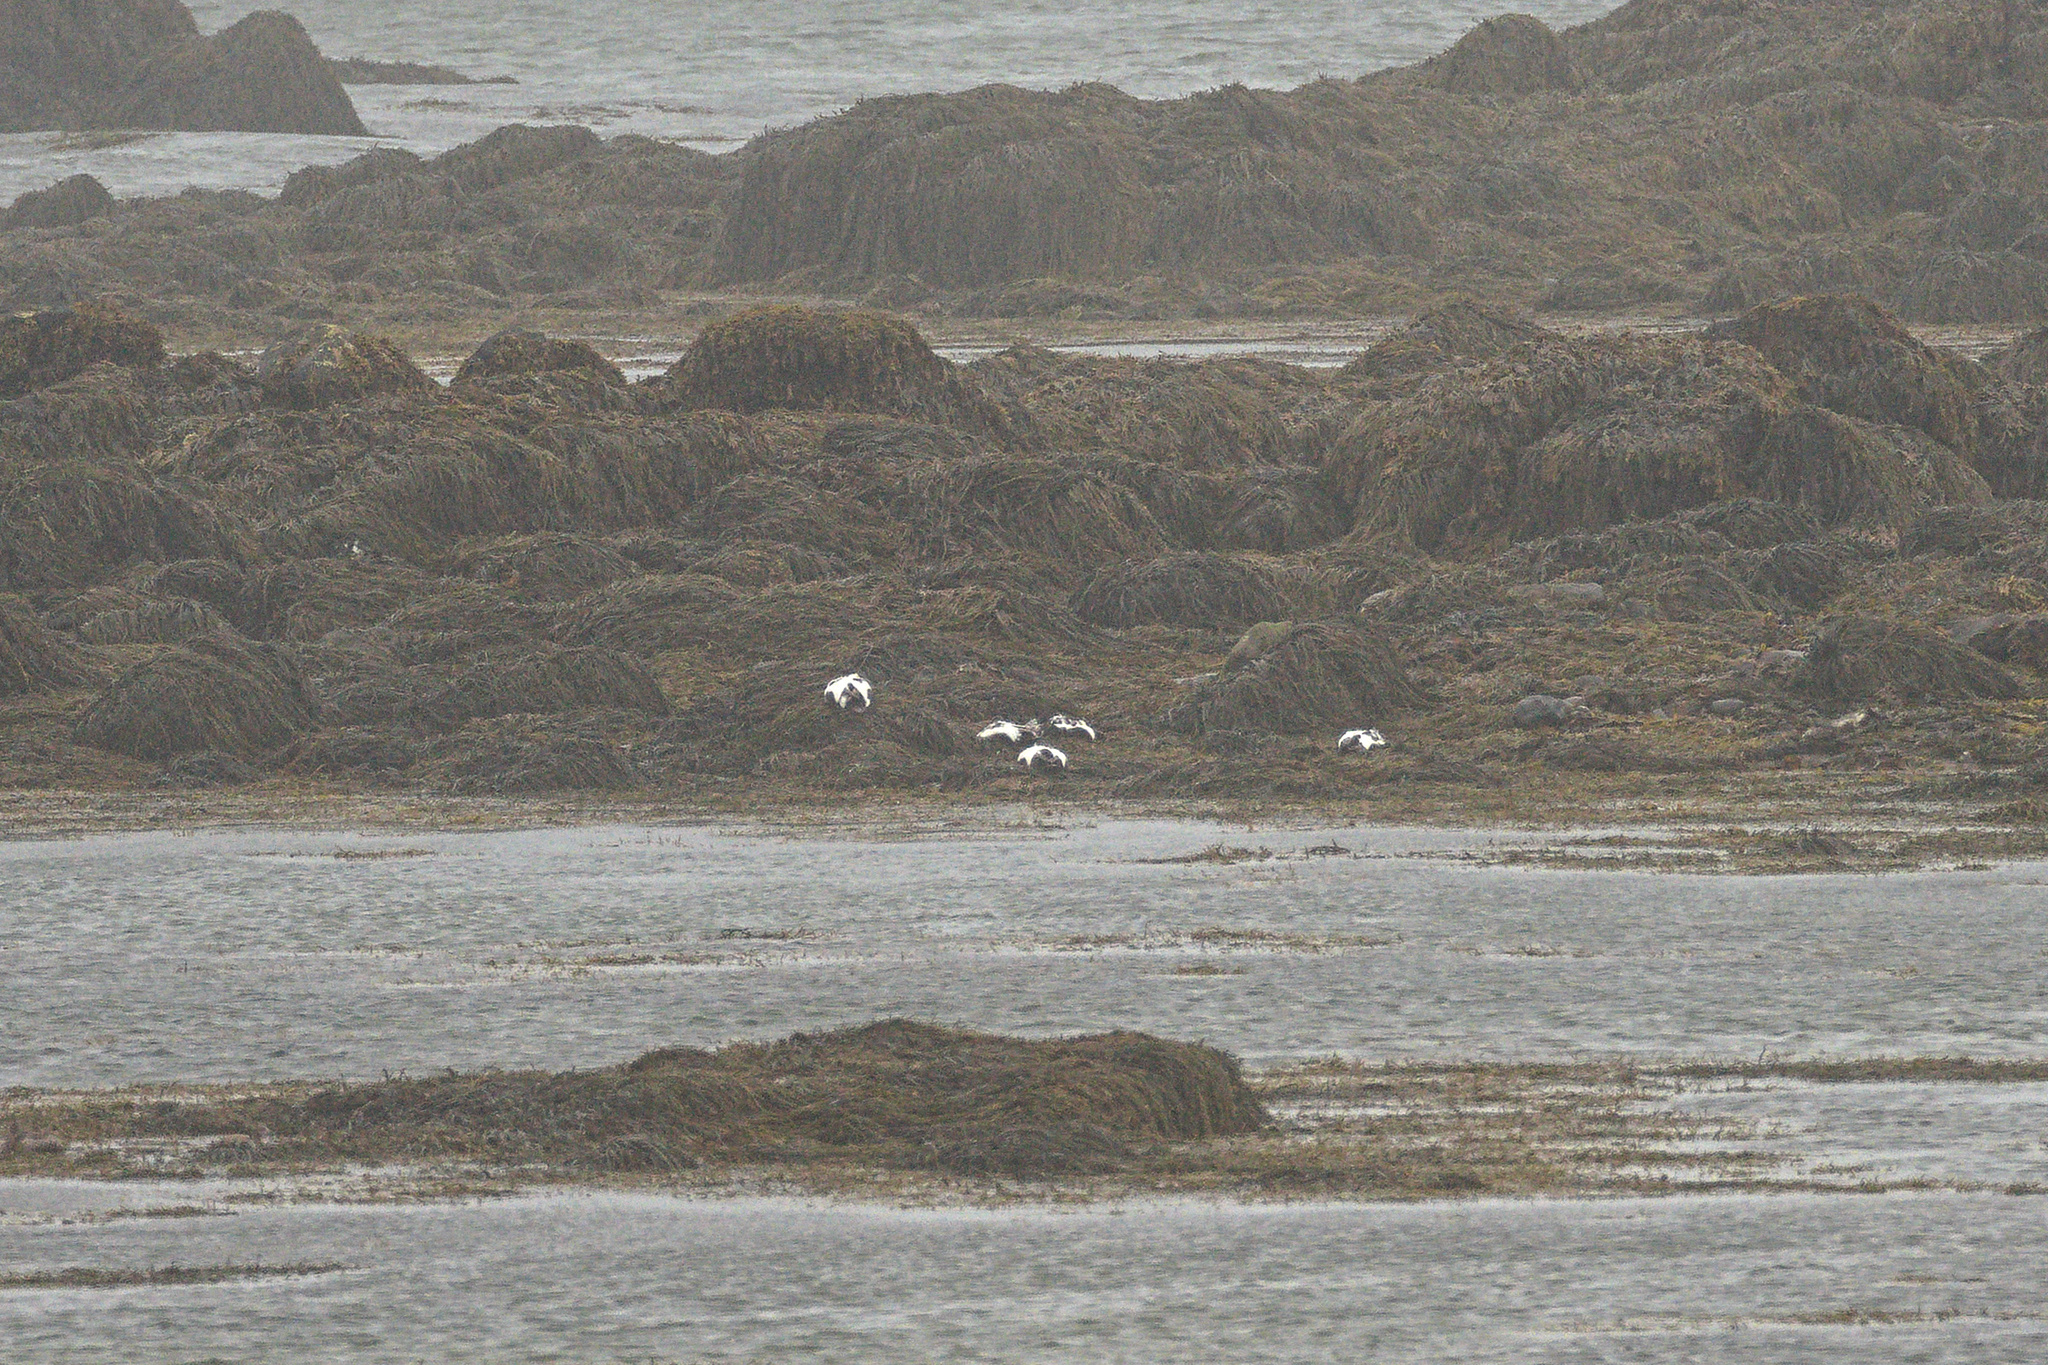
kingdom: Animalia
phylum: Chordata
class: Aves
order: Anseriformes
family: Anatidae
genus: Somateria
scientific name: Somateria mollissima
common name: Common eider
